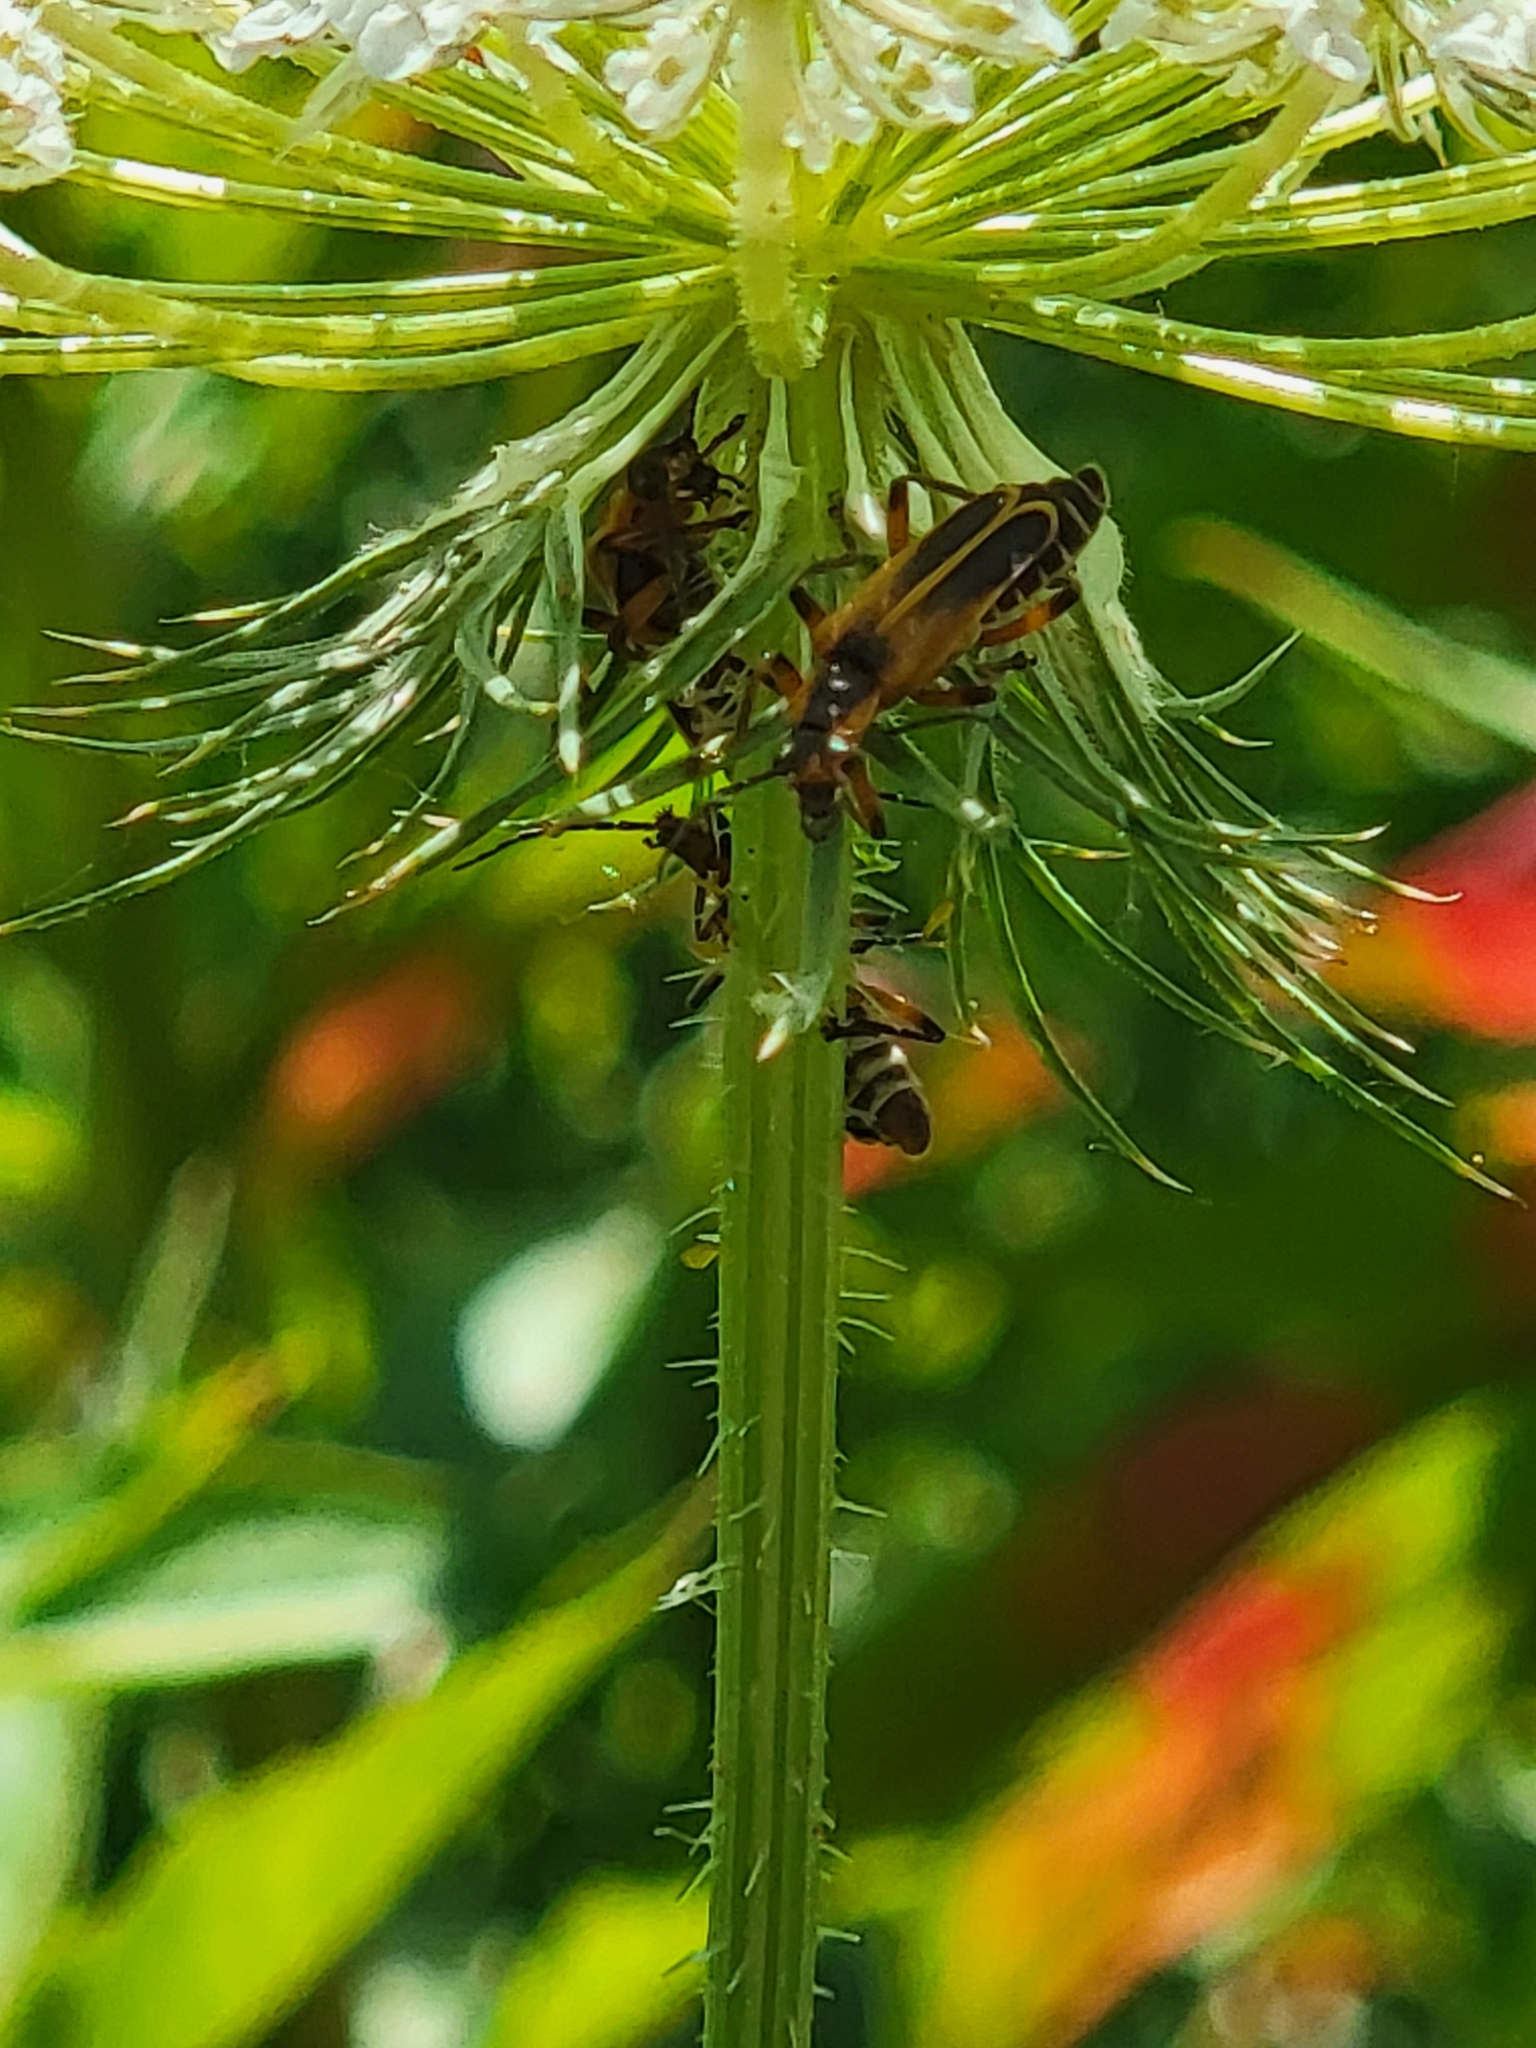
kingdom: Animalia
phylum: Arthropoda
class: Insecta
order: Coleoptera
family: Cantharidae
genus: Chauliognathus
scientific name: Chauliognathus marginatus
